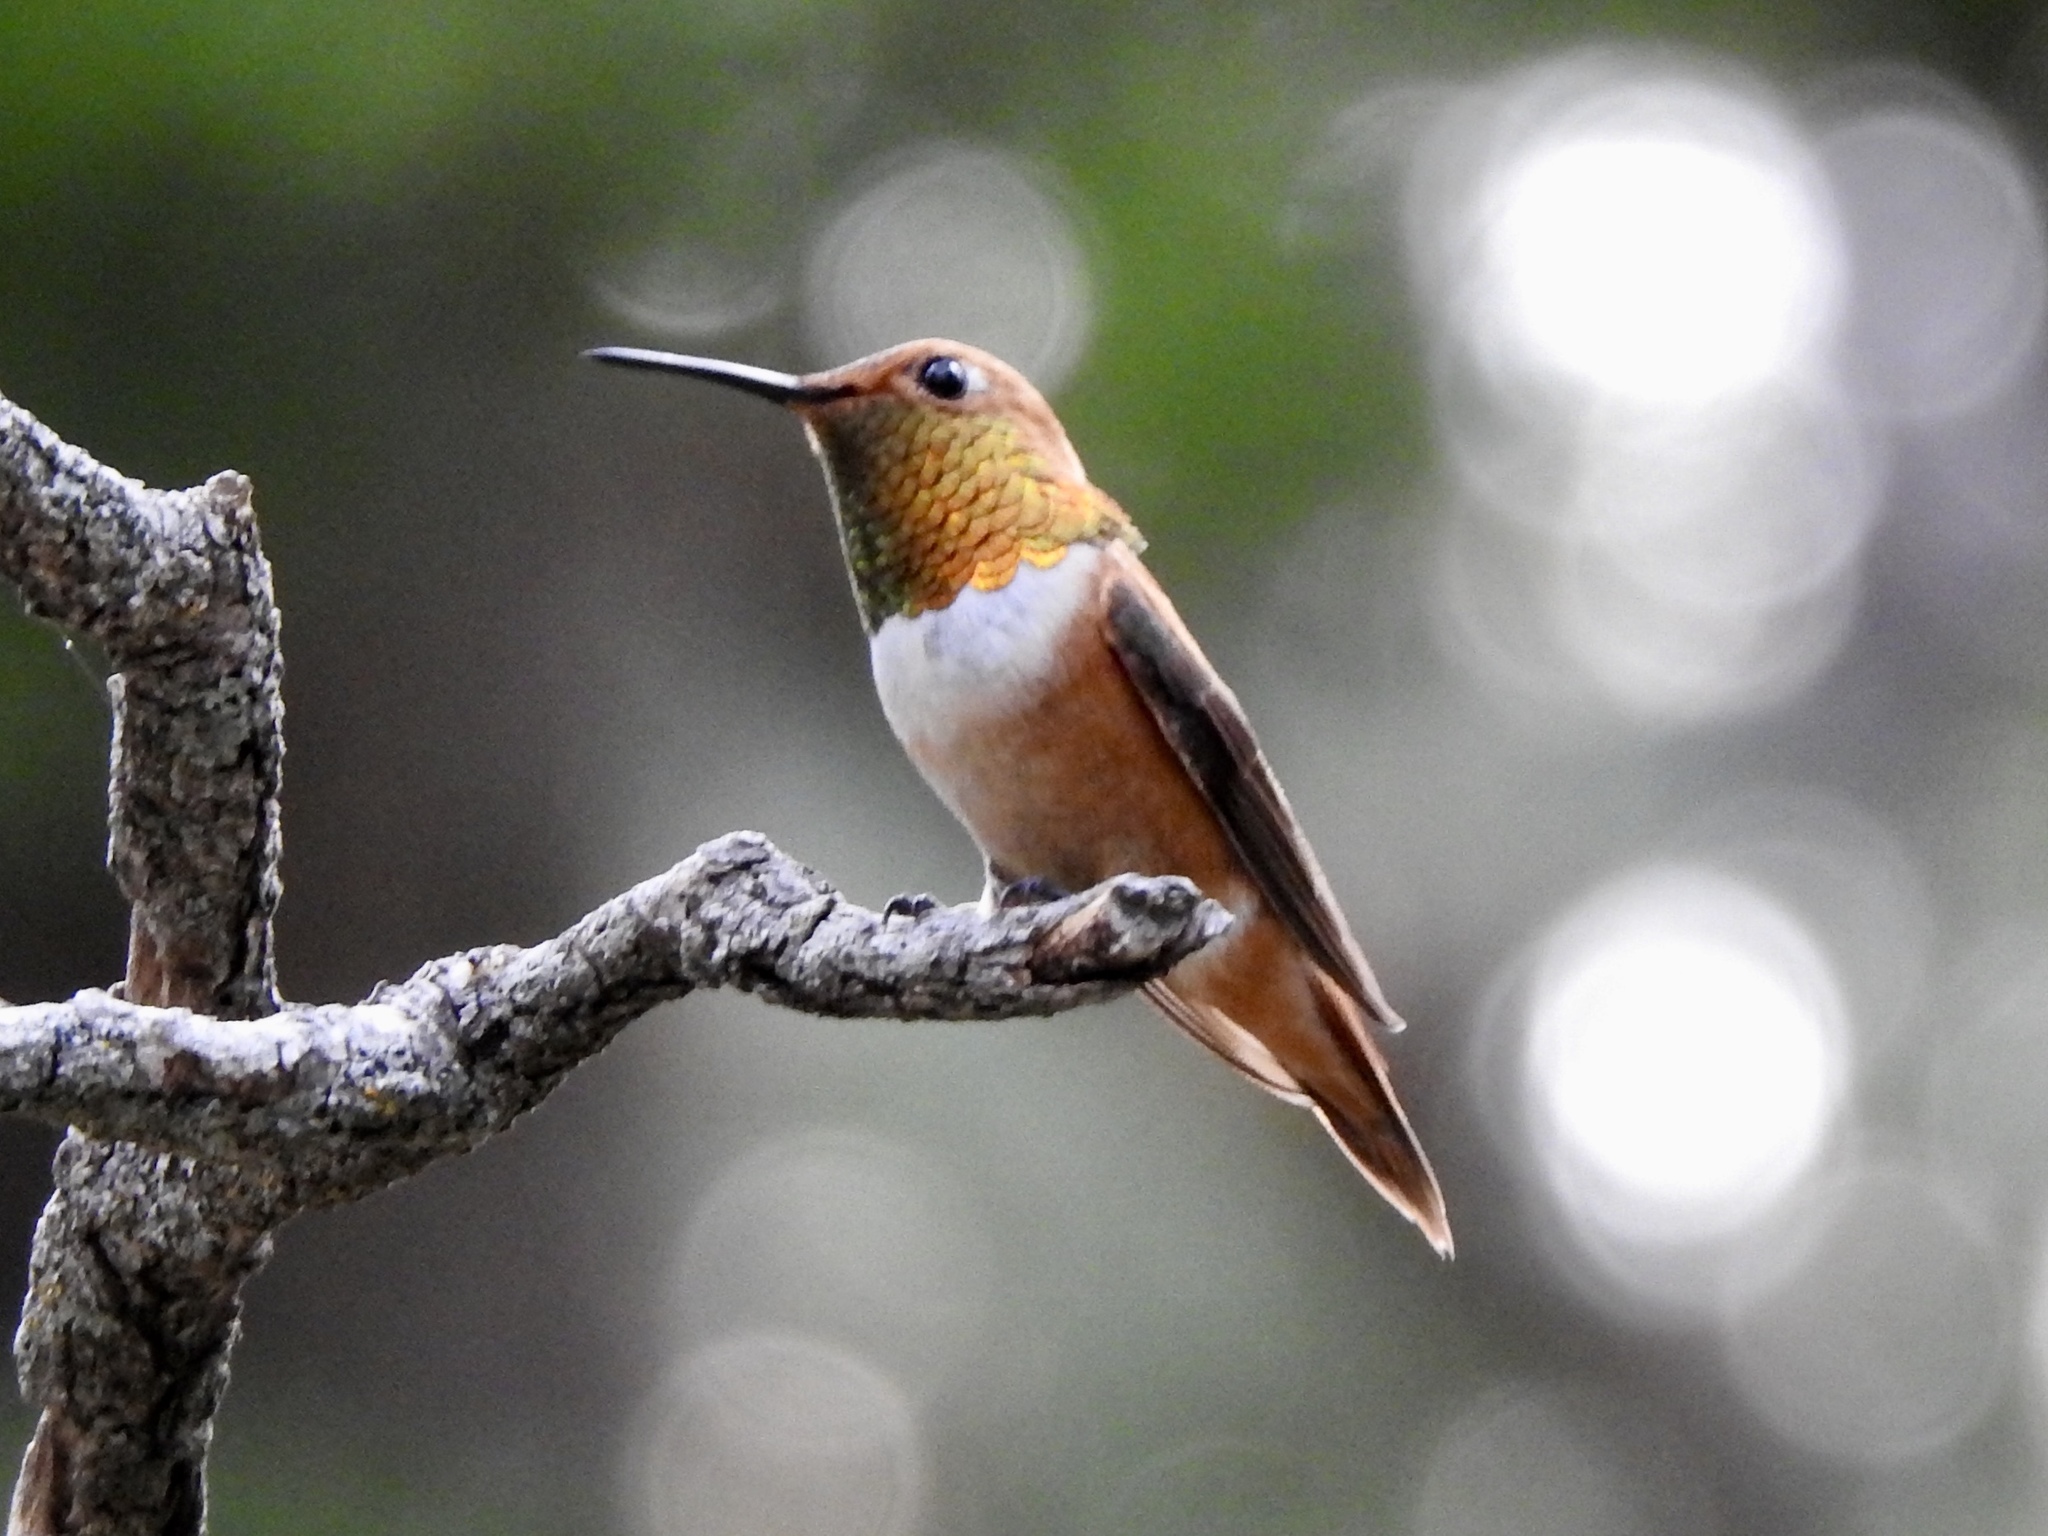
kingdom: Animalia
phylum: Chordata
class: Aves
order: Apodiformes
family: Trochilidae
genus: Selasphorus
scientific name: Selasphorus rufus
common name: Rufous hummingbird
